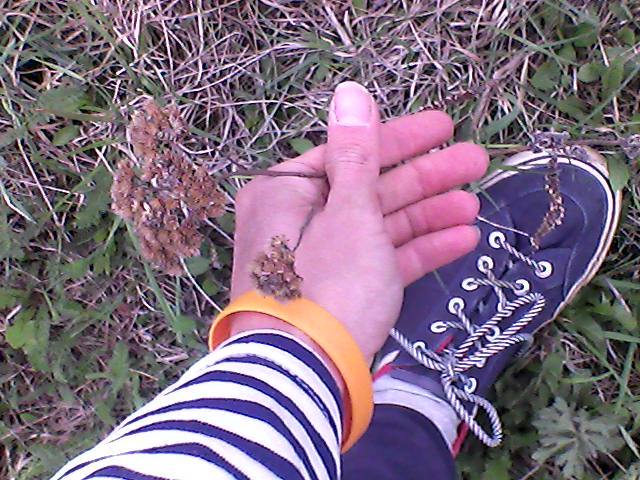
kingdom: Plantae
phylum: Tracheophyta
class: Magnoliopsida
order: Asterales
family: Asteraceae
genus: Achillea
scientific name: Achillea millefolium
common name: Yarrow
